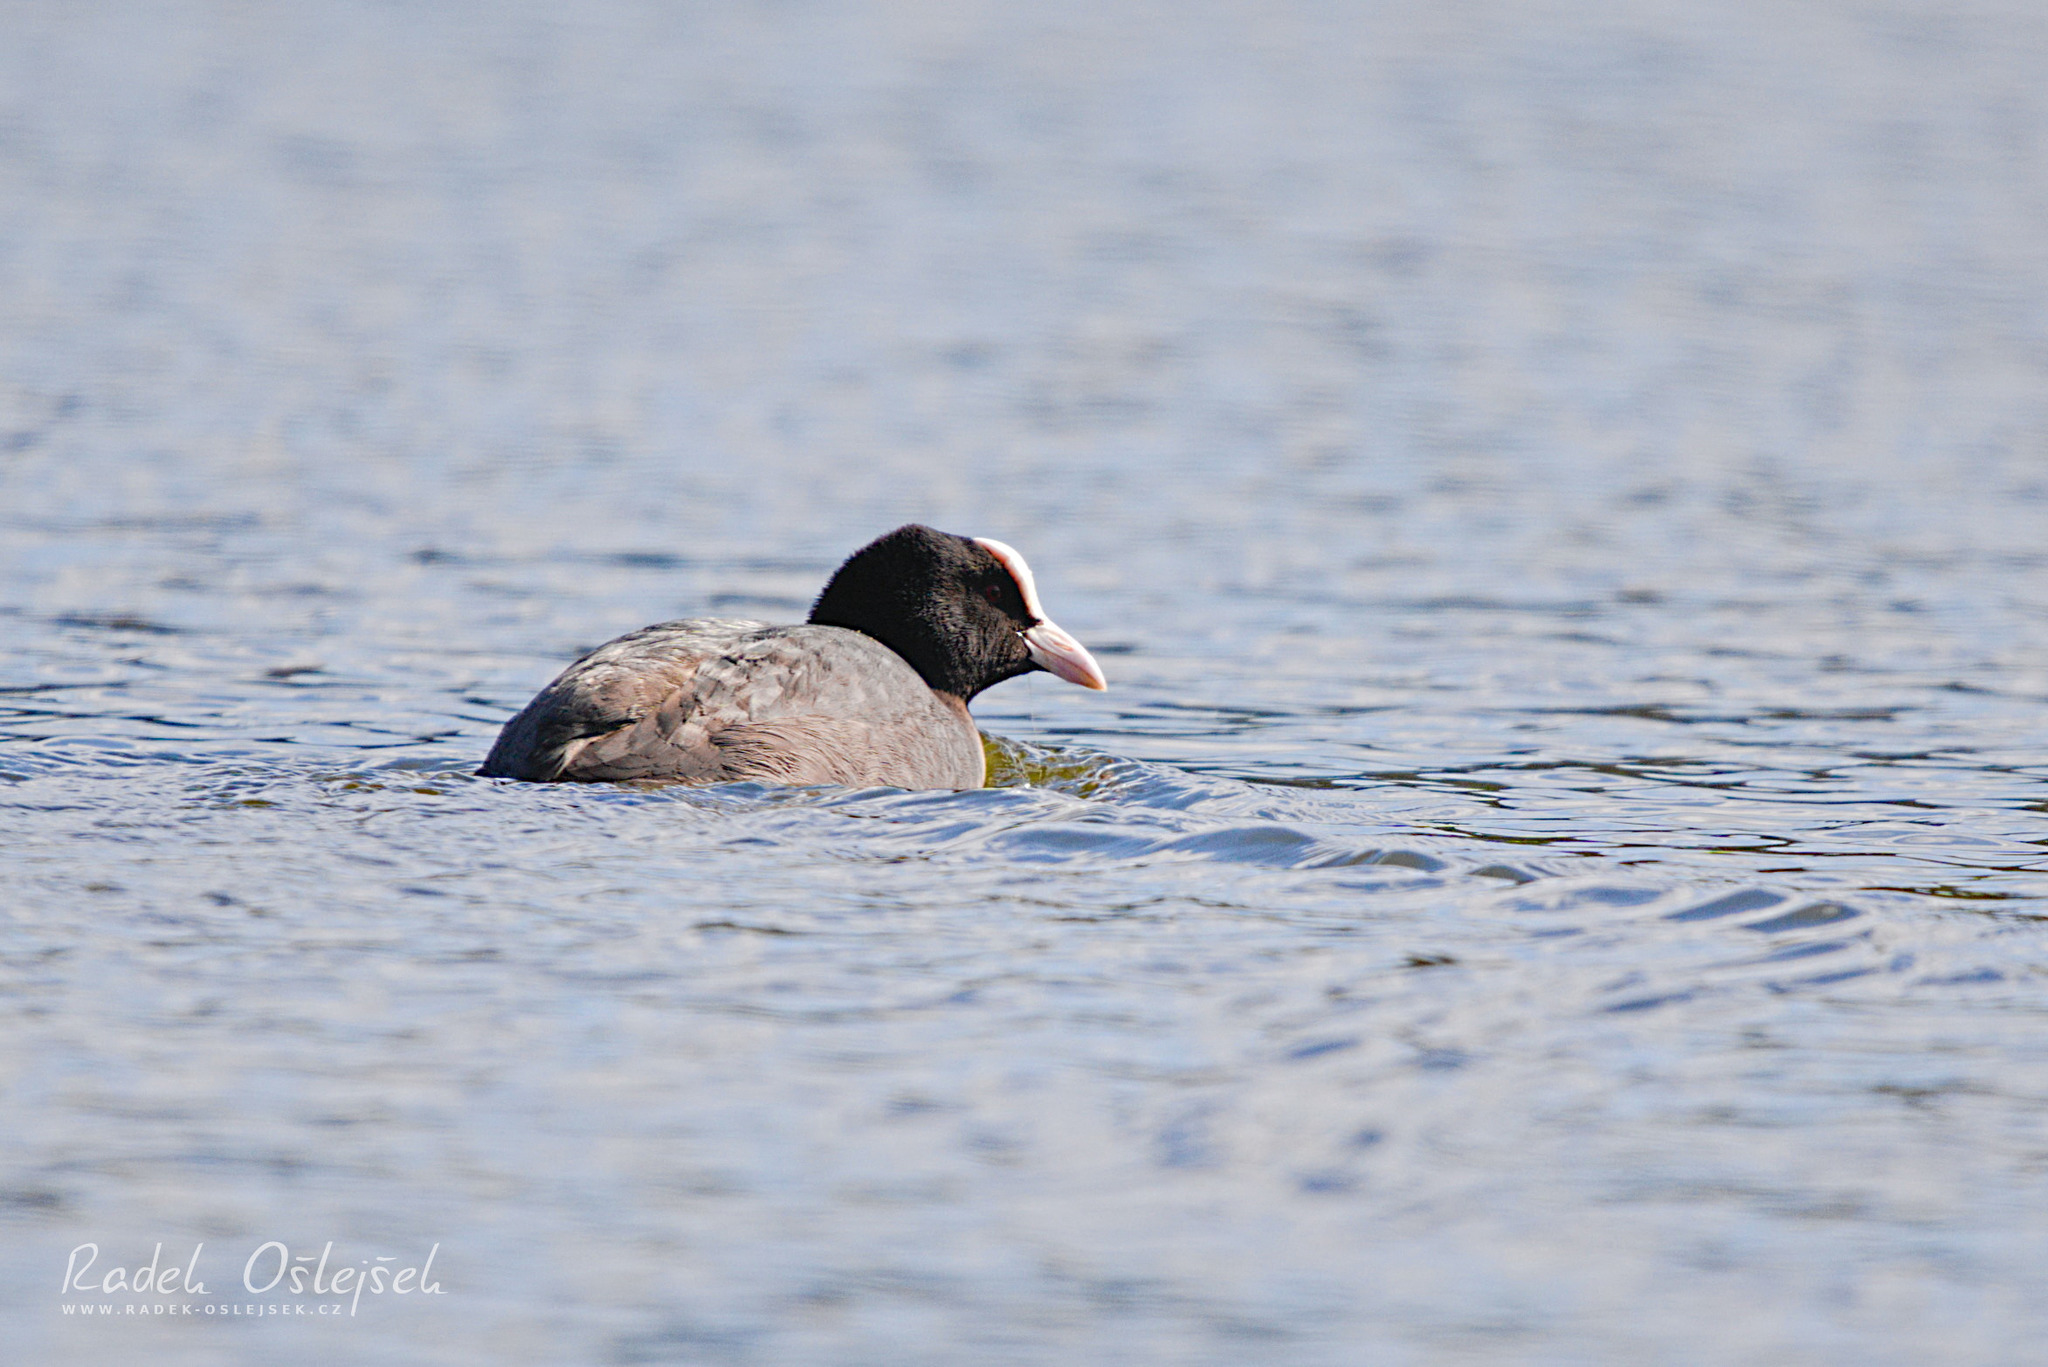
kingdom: Animalia
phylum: Chordata
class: Aves
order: Gruiformes
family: Rallidae
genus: Fulica
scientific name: Fulica atra
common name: Eurasian coot
